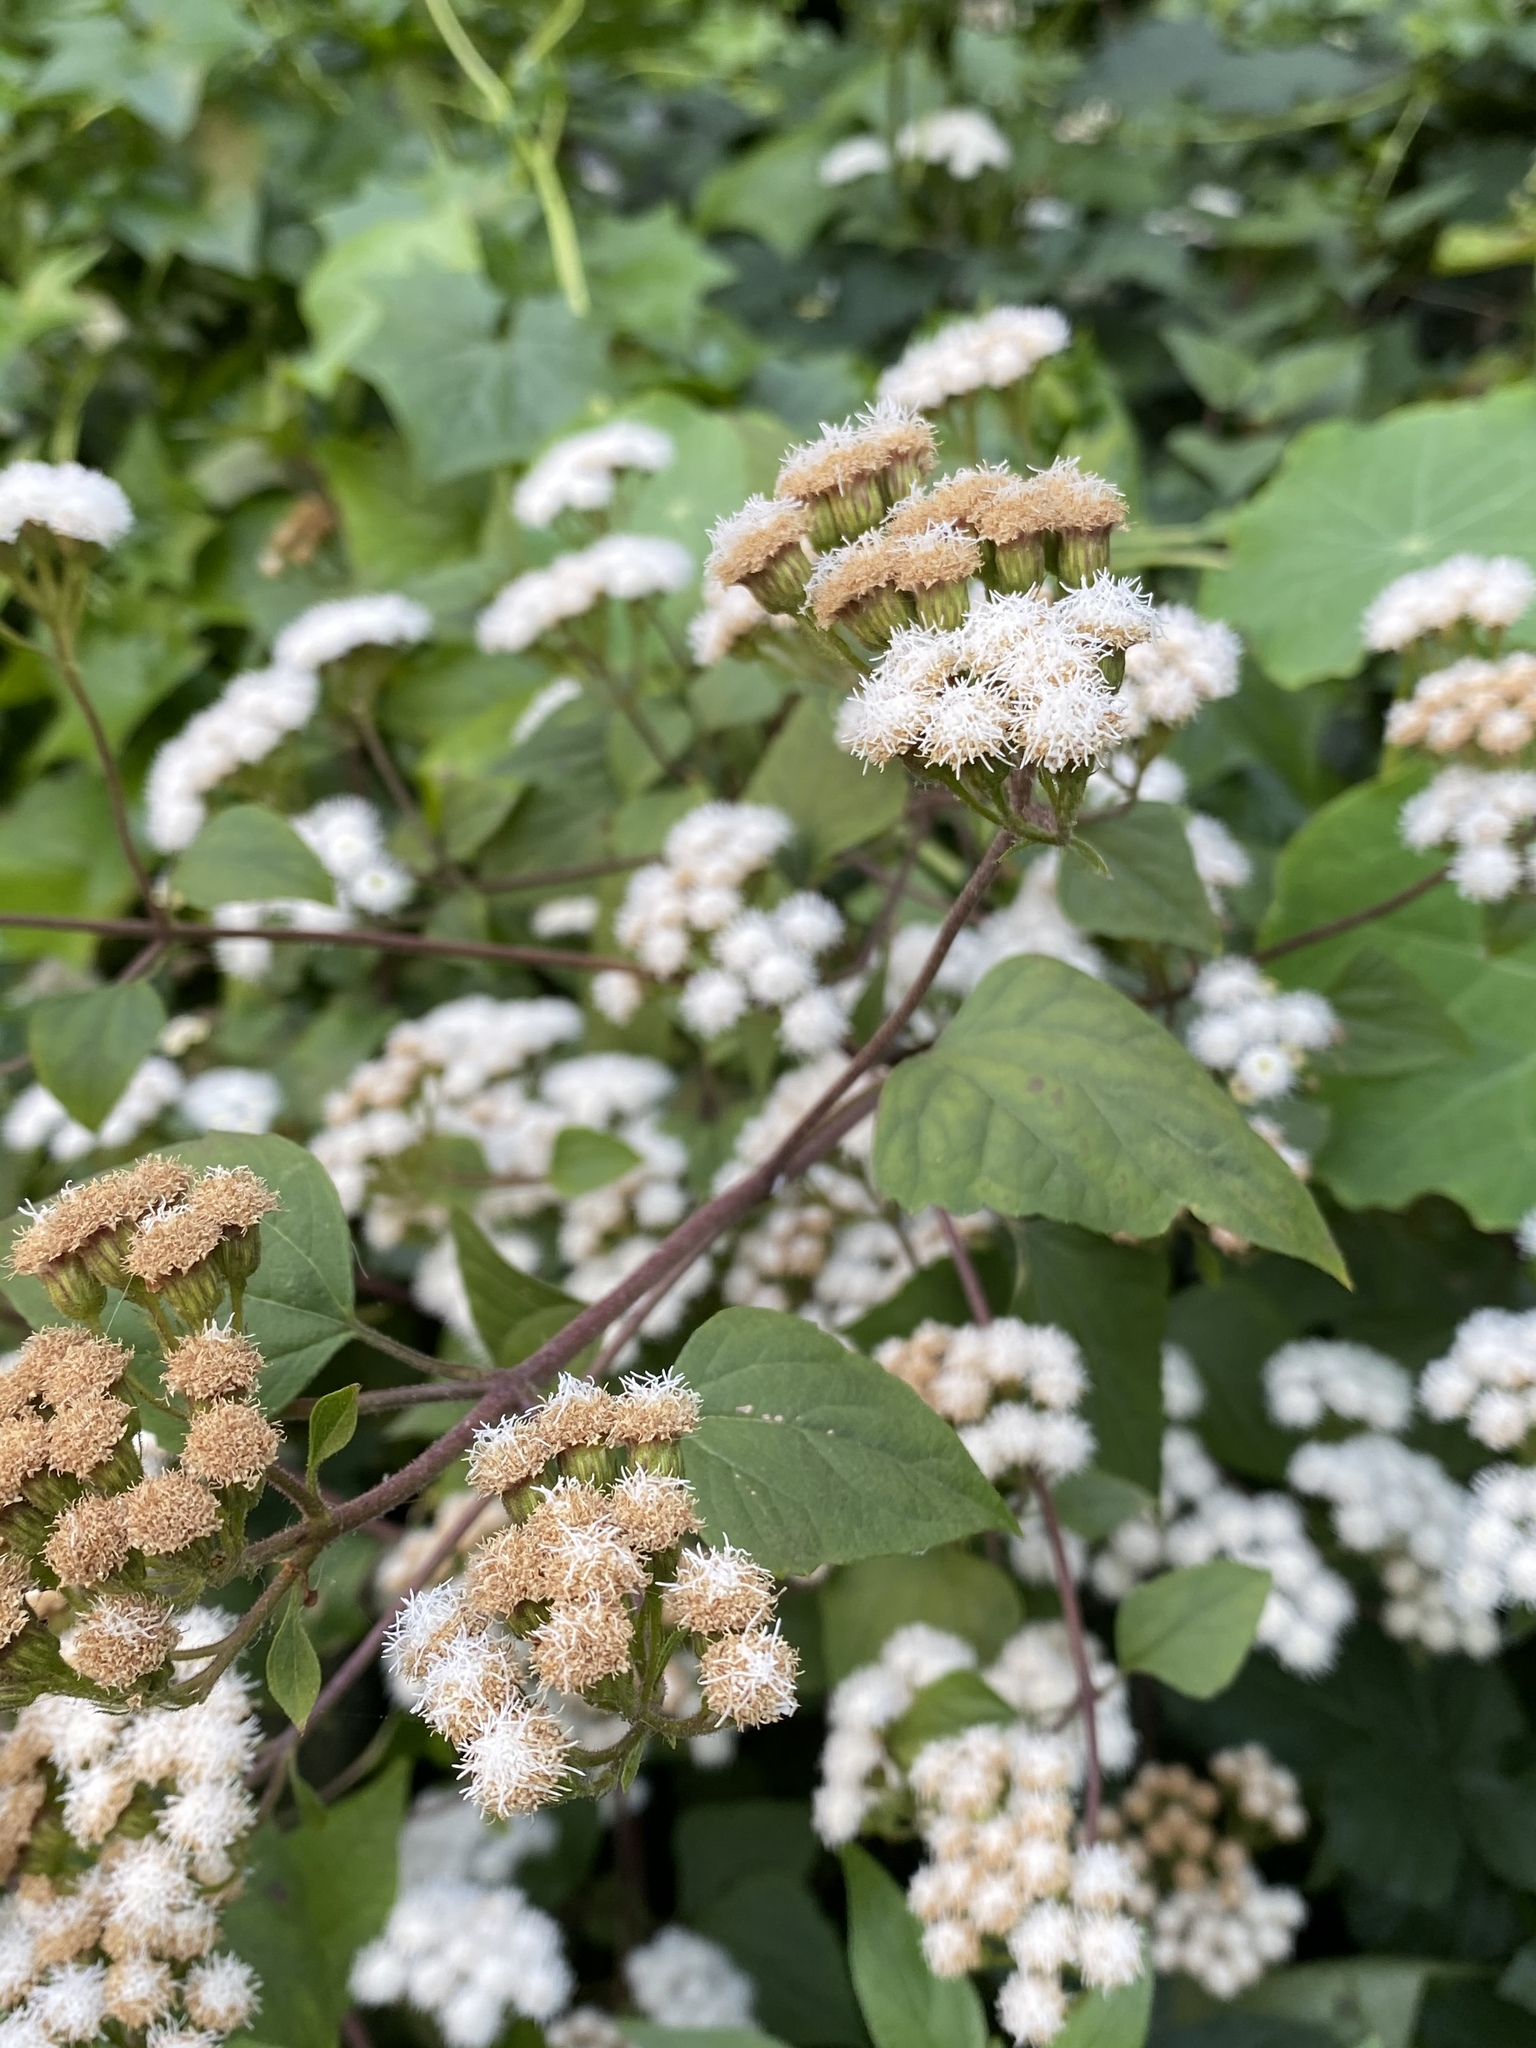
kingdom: Plantae
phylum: Tracheophyta
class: Magnoliopsida
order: Asterales
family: Asteraceae
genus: Ageratina
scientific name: Ageratina adenophora
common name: Sticky snakeroot
